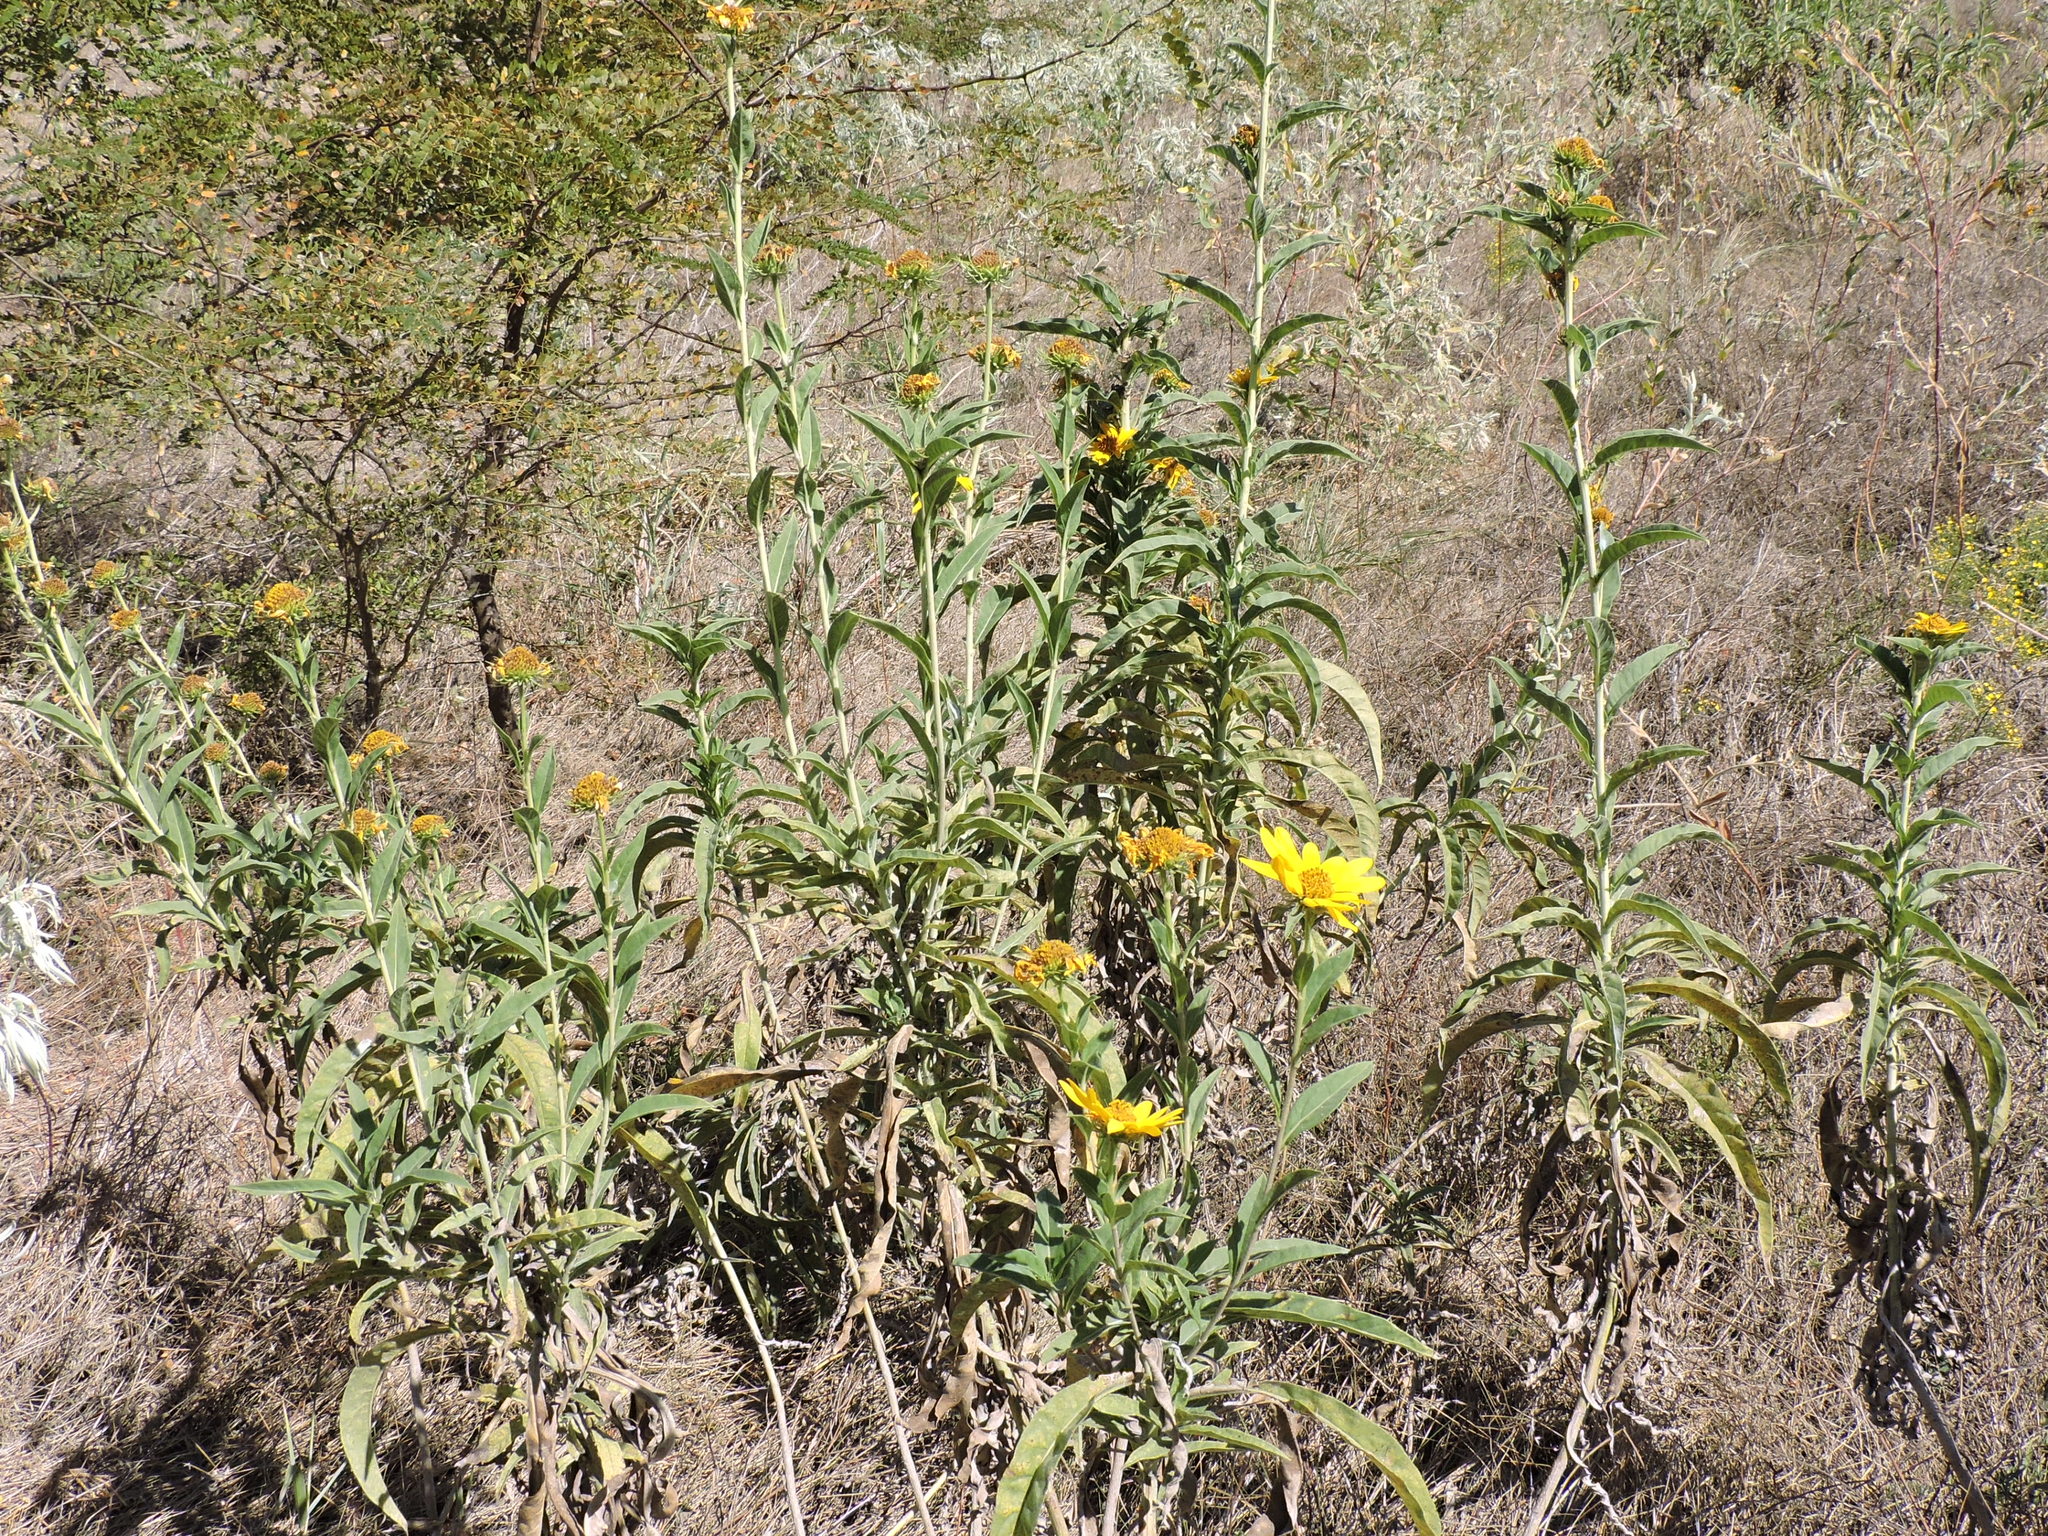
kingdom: Plantae
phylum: Tracheophyta
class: Magnoliopsida
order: Asterales
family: Asteraceae
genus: Helianthus
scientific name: Helianthus maximiliani
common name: Maximilian's sunflower
